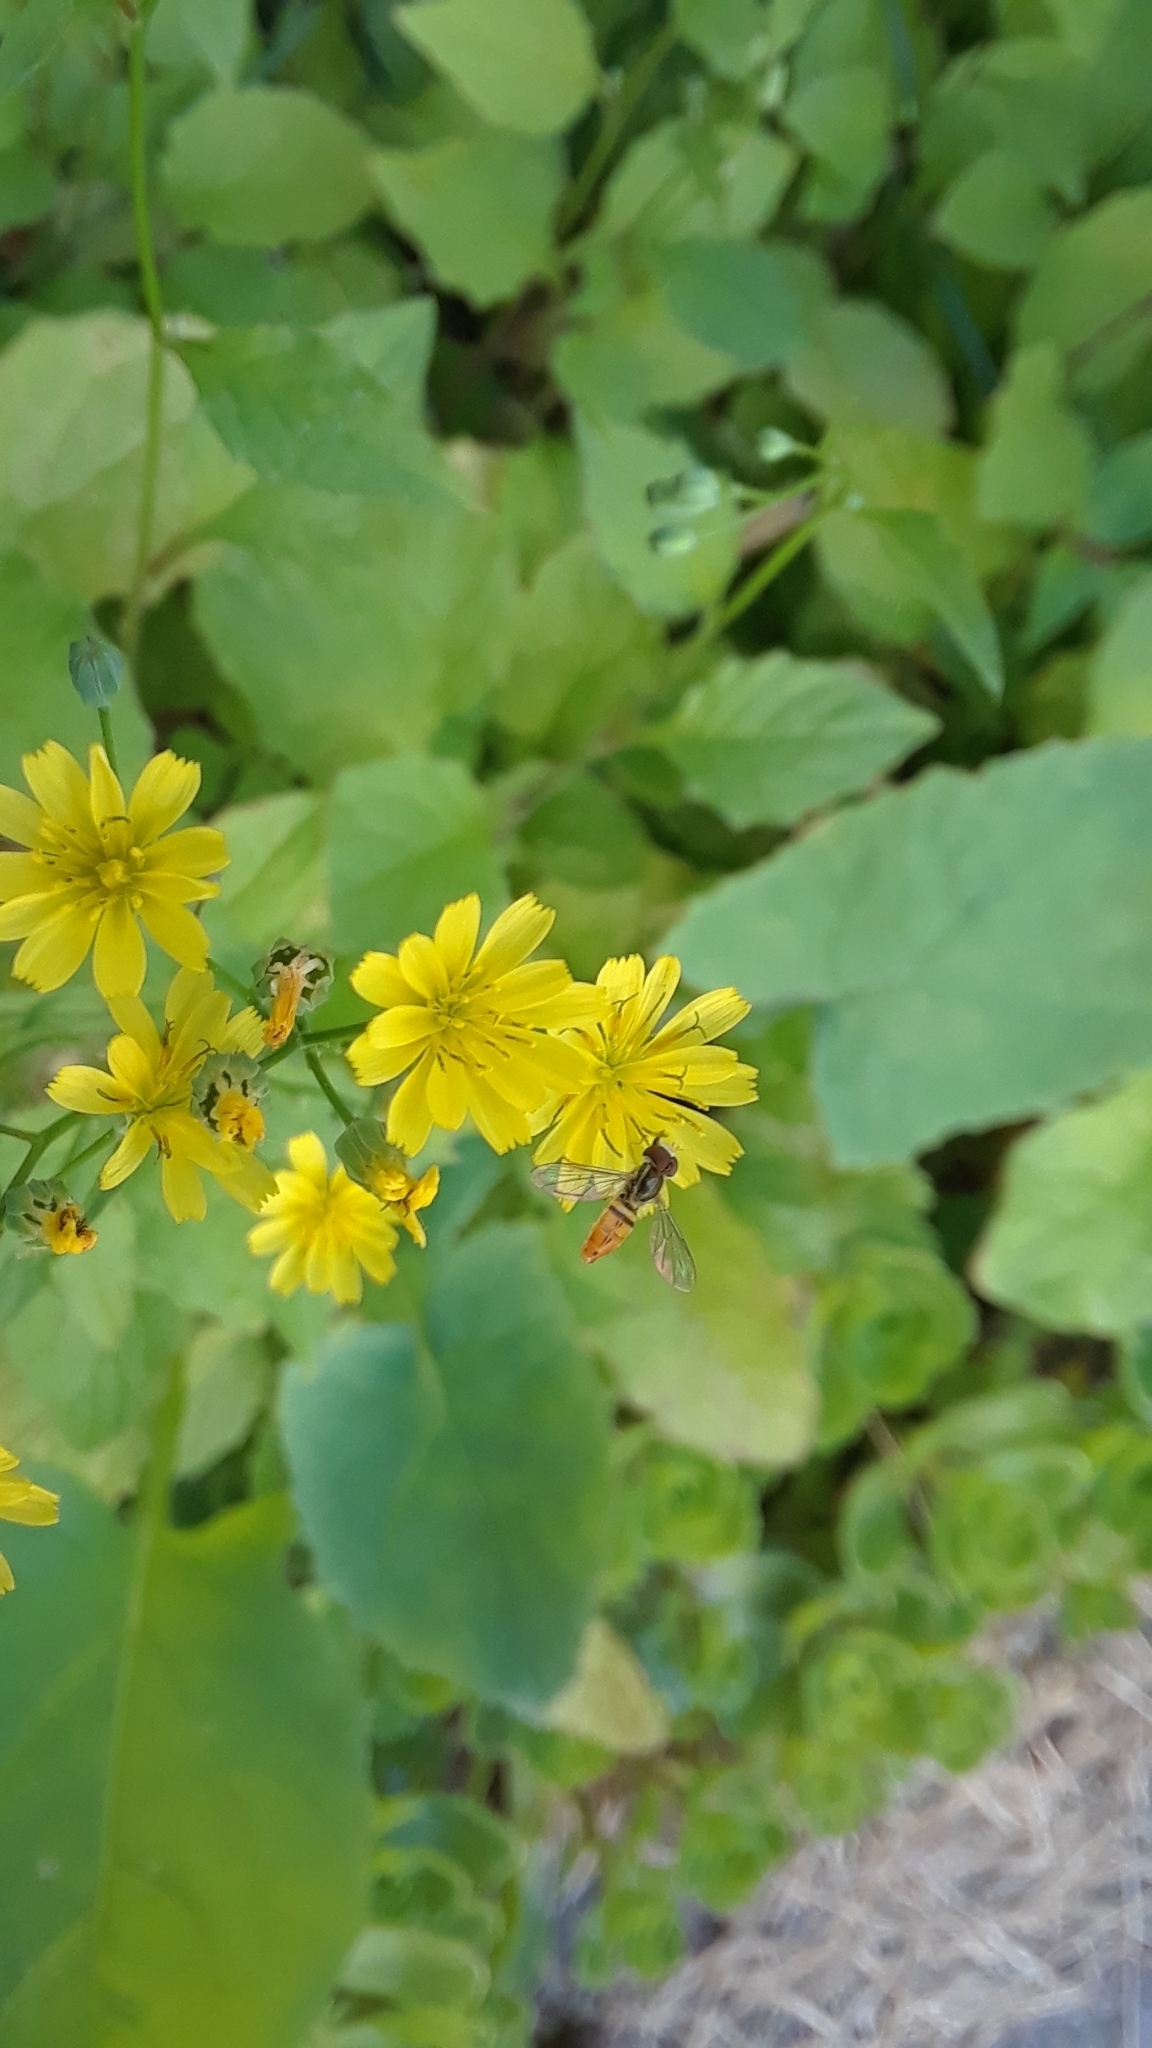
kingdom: Plantae
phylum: Tracheophyta
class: Magnoliopsida
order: Asterales
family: Asteraceae
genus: Lapsana
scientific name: Lapsana communis
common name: Nipplewort
